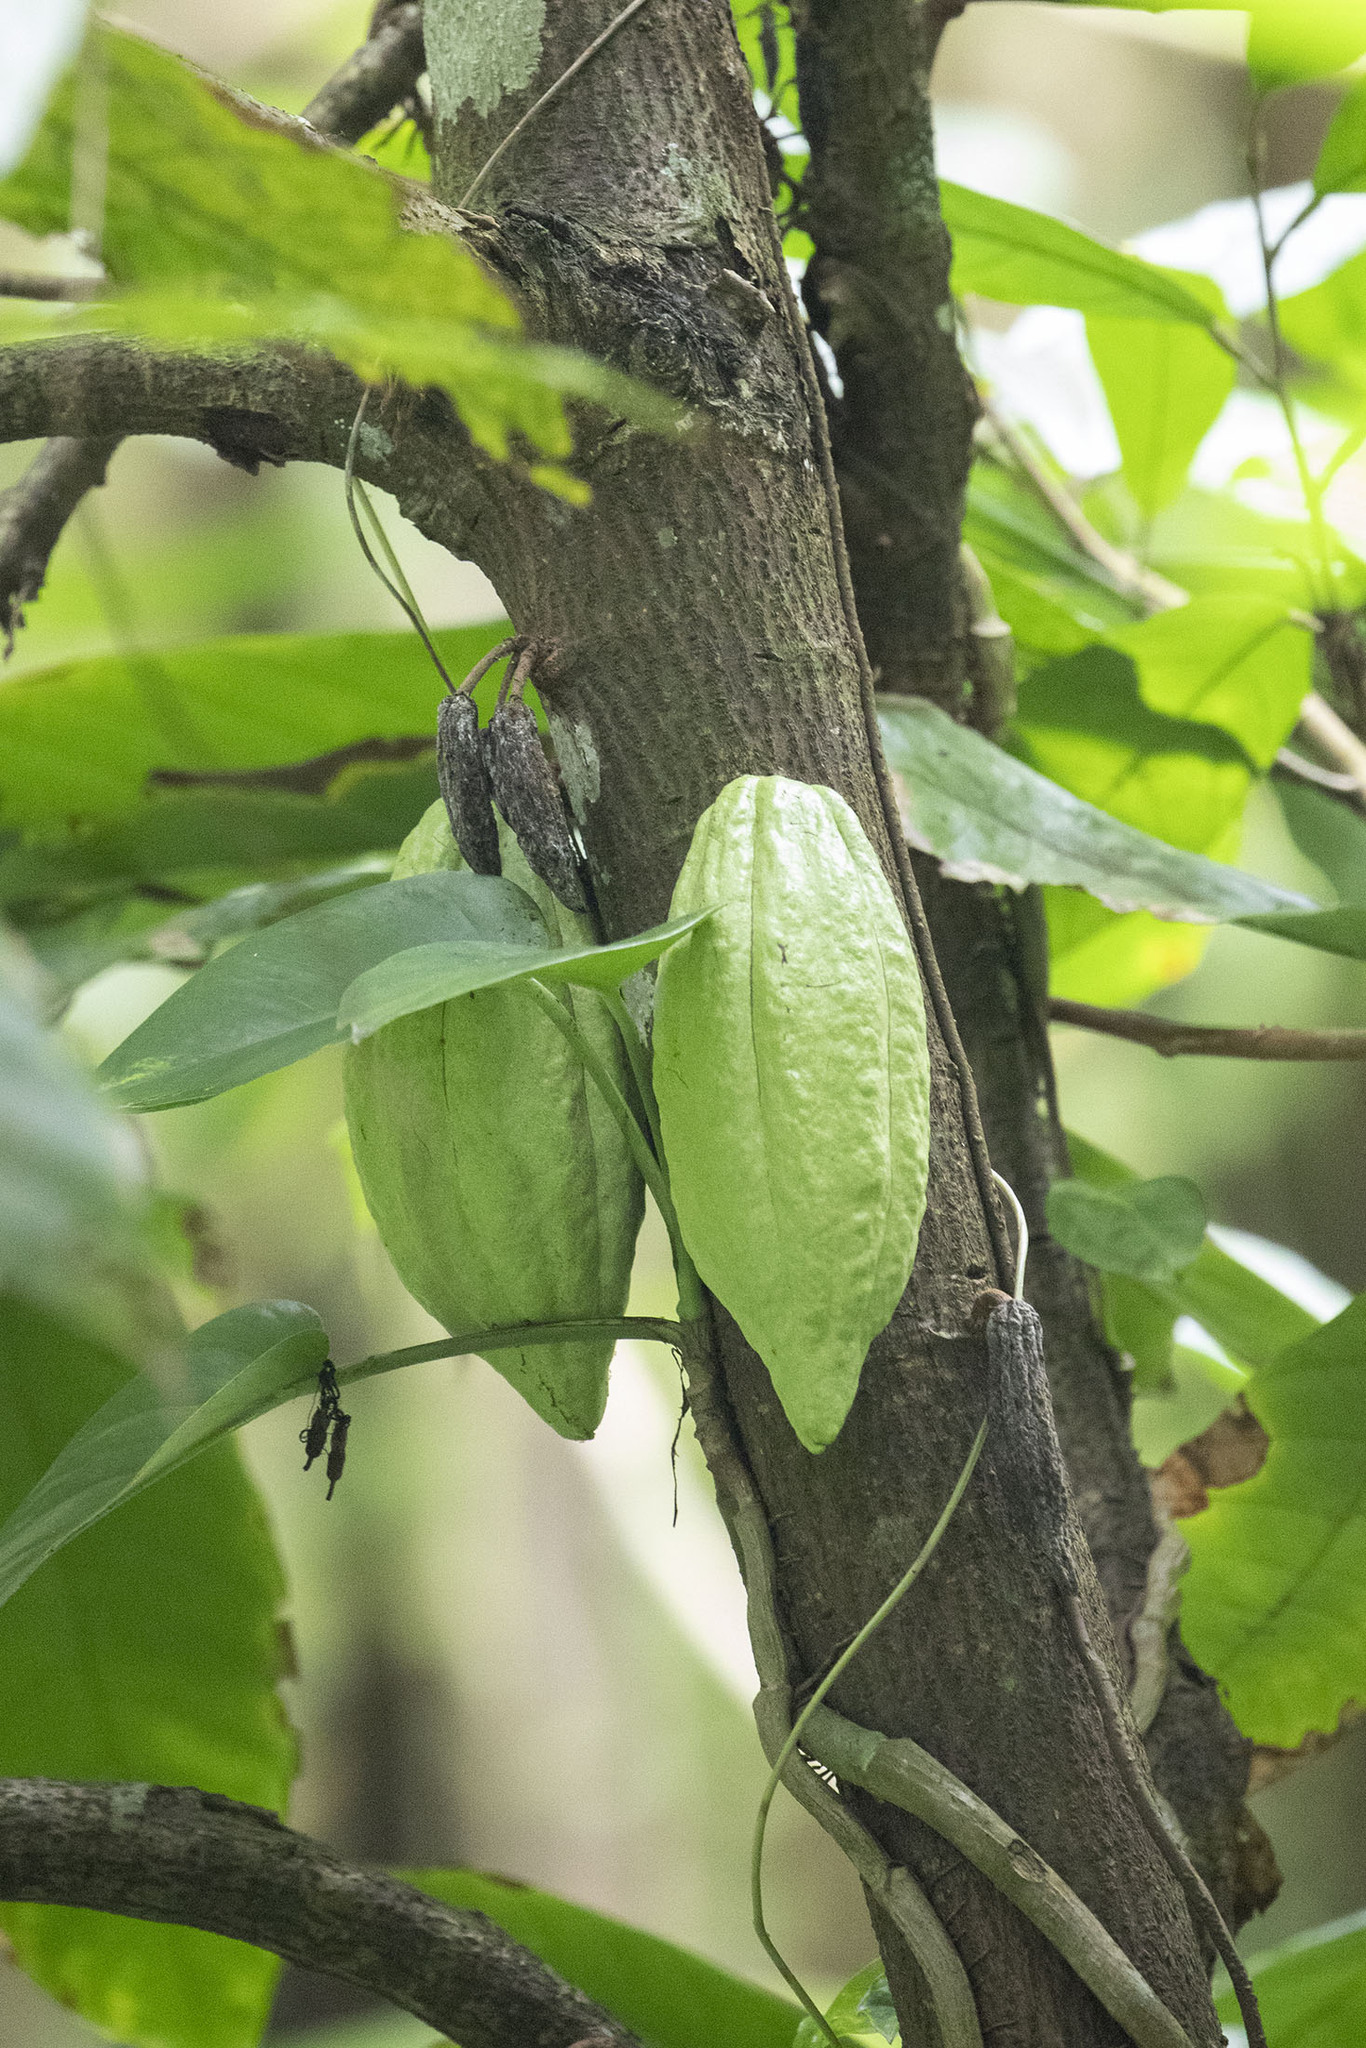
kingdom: Plantae
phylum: Tracheophyta
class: Magnoliopsida
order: Malvales
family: Malvaceae
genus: Theobroma
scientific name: Theobroma cacao
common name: Cocoa
